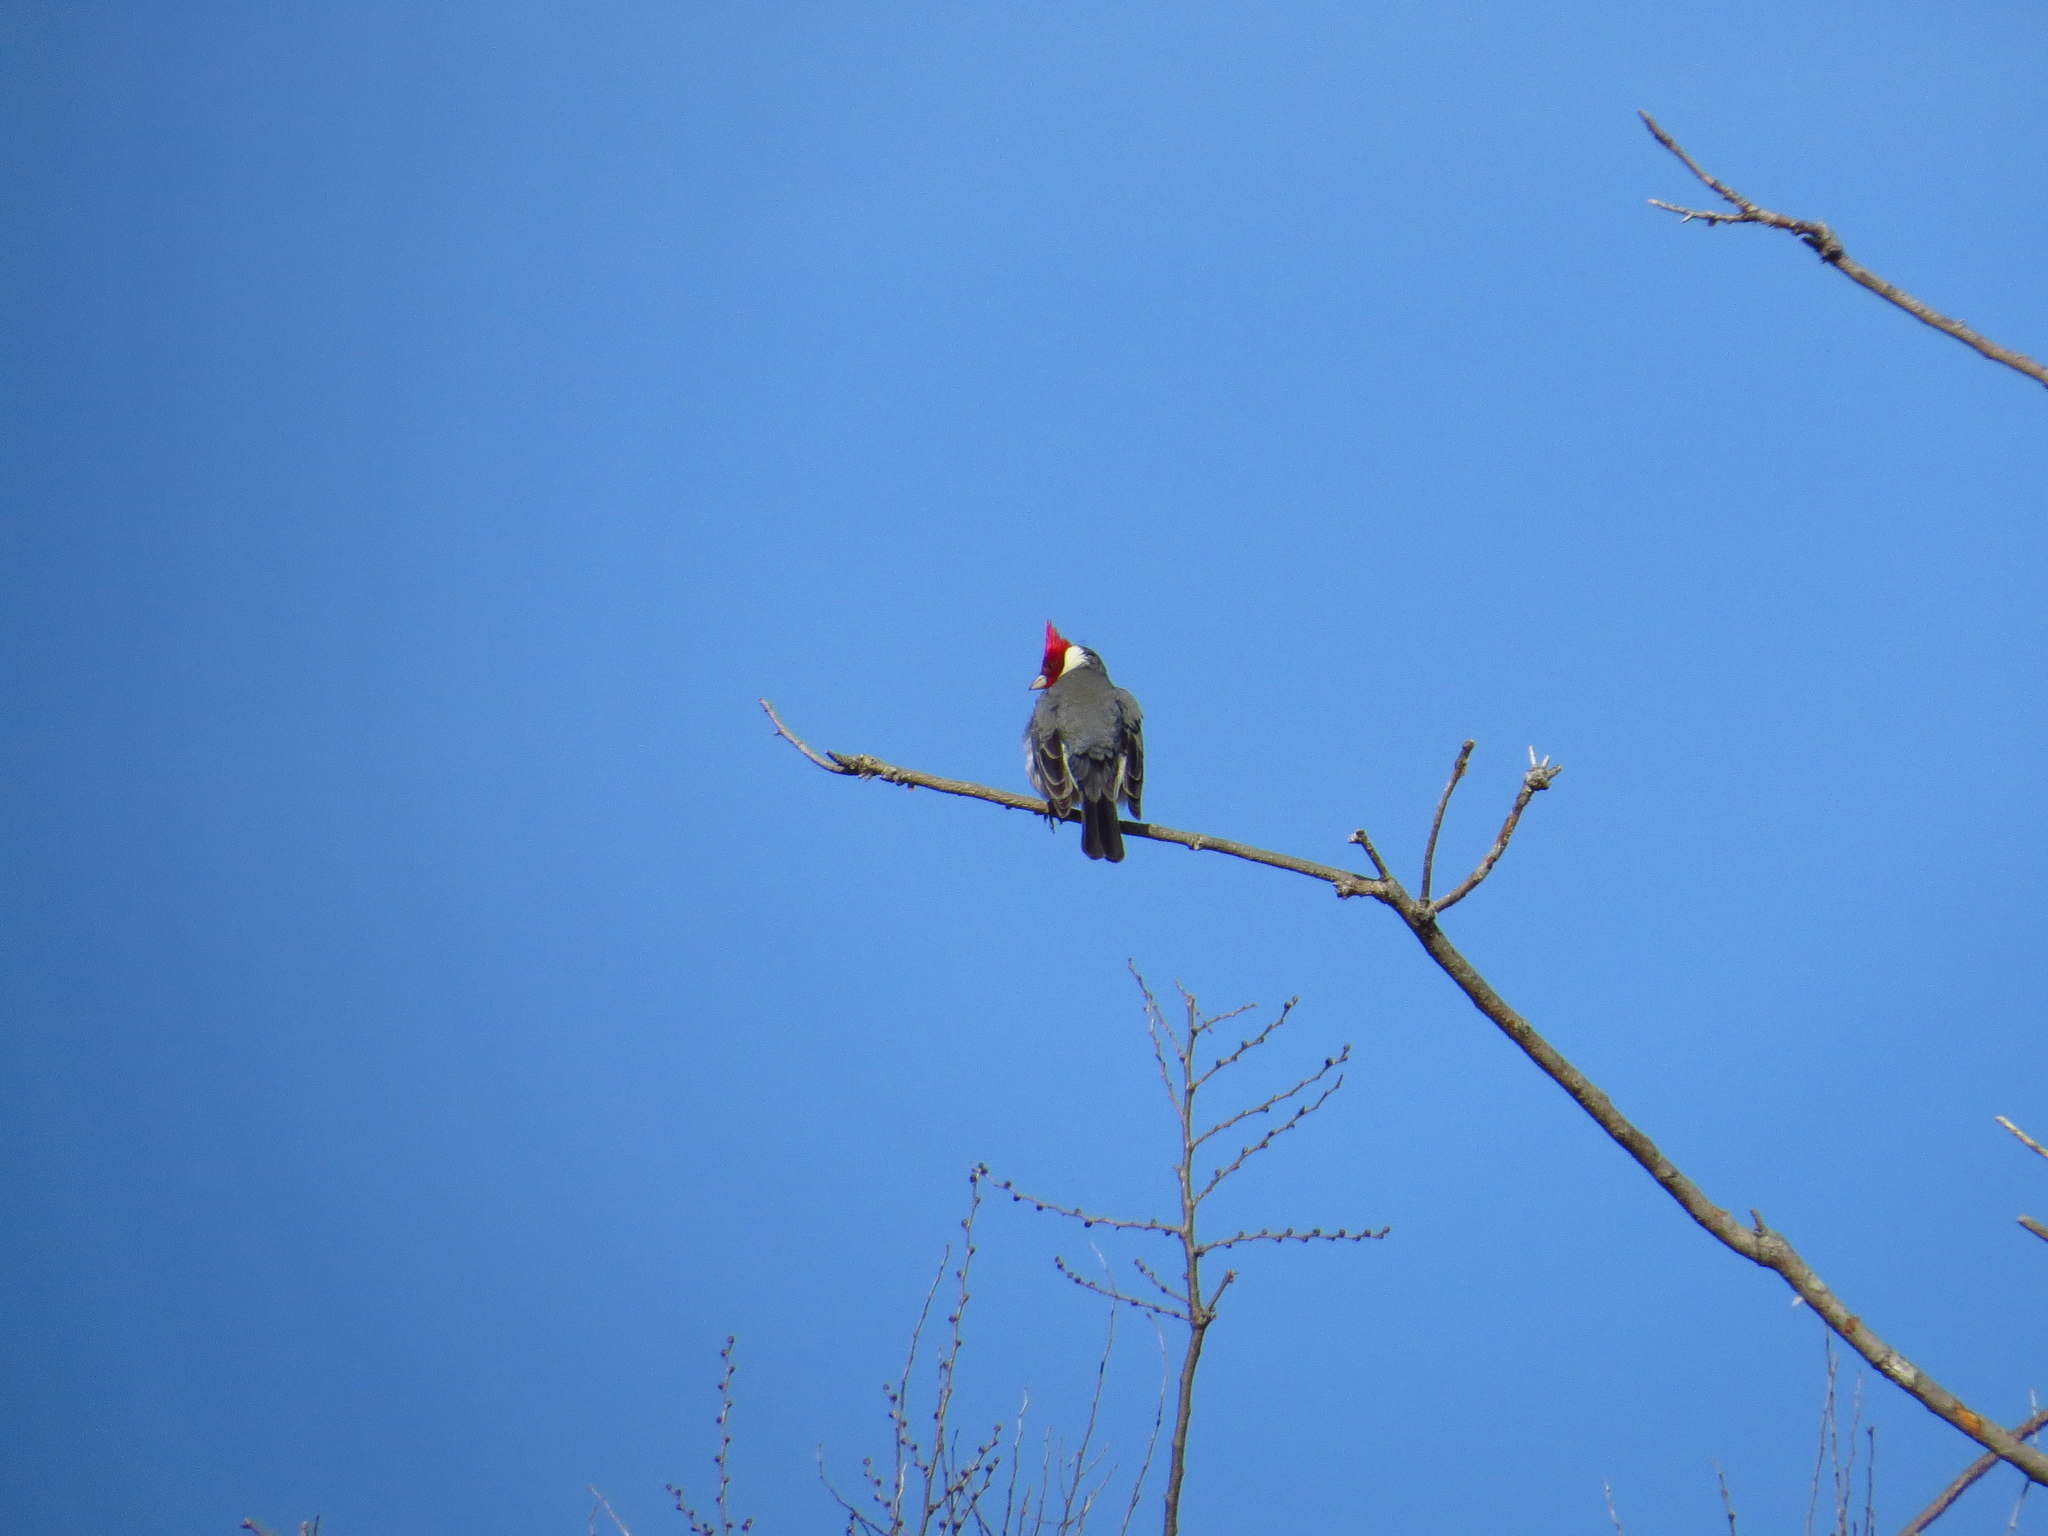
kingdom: Animalia
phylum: Chordata
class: Aves
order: Passeriformes
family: Thraupidae
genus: Paroaria
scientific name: Paroaria coronata
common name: Red-crested cardinal
